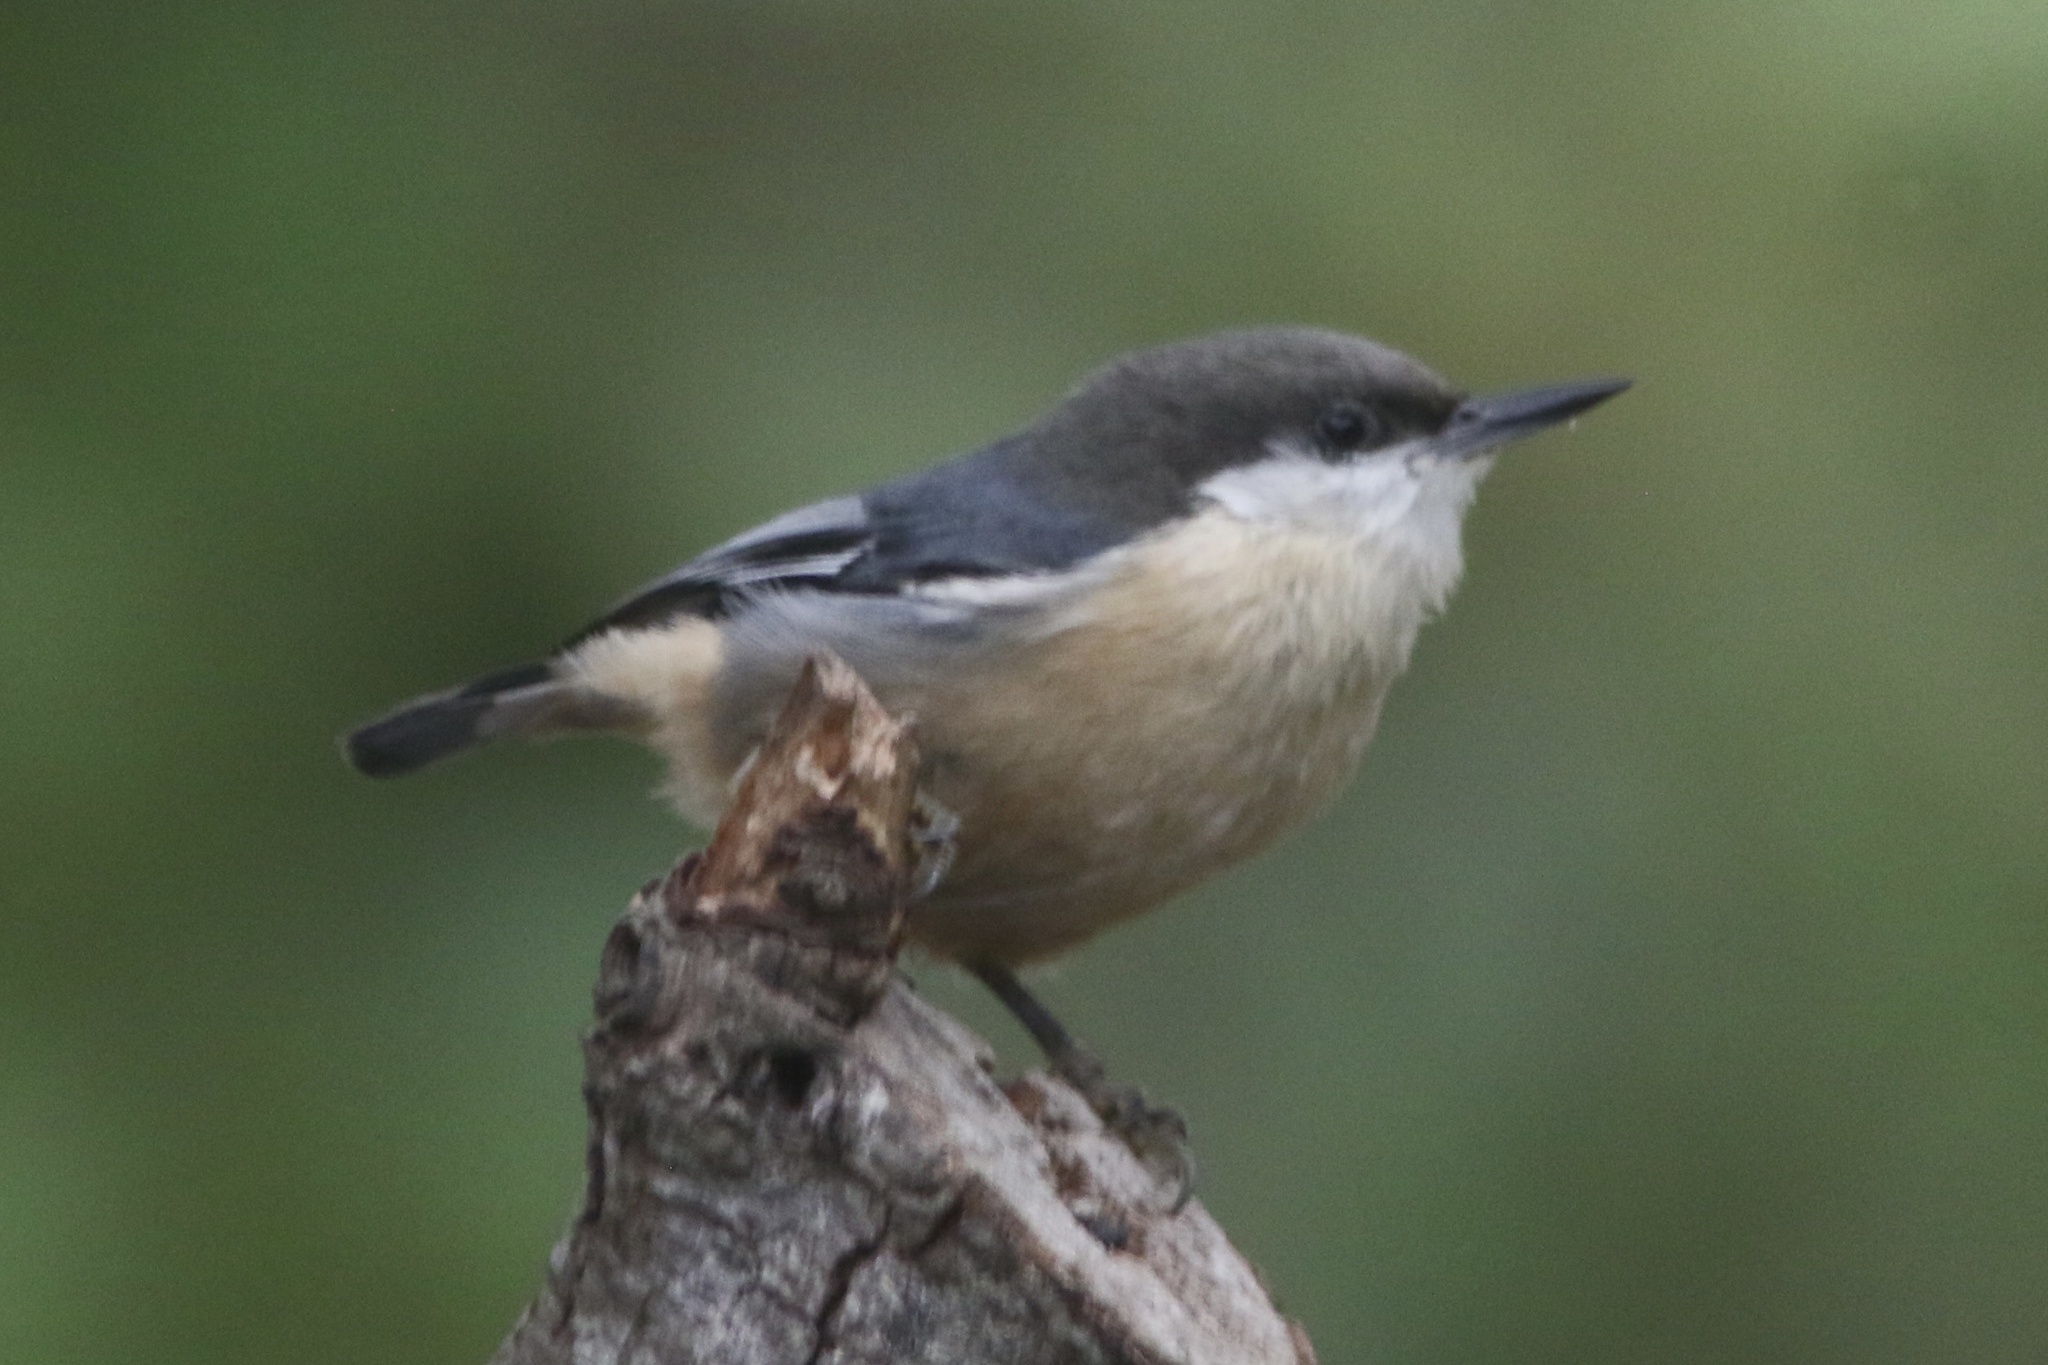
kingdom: Animalia
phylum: Chordata
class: Aves
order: Passeriformes
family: Sittidae
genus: Sitta
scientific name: Sitta pygmaea
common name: Pygmy nuthatch
